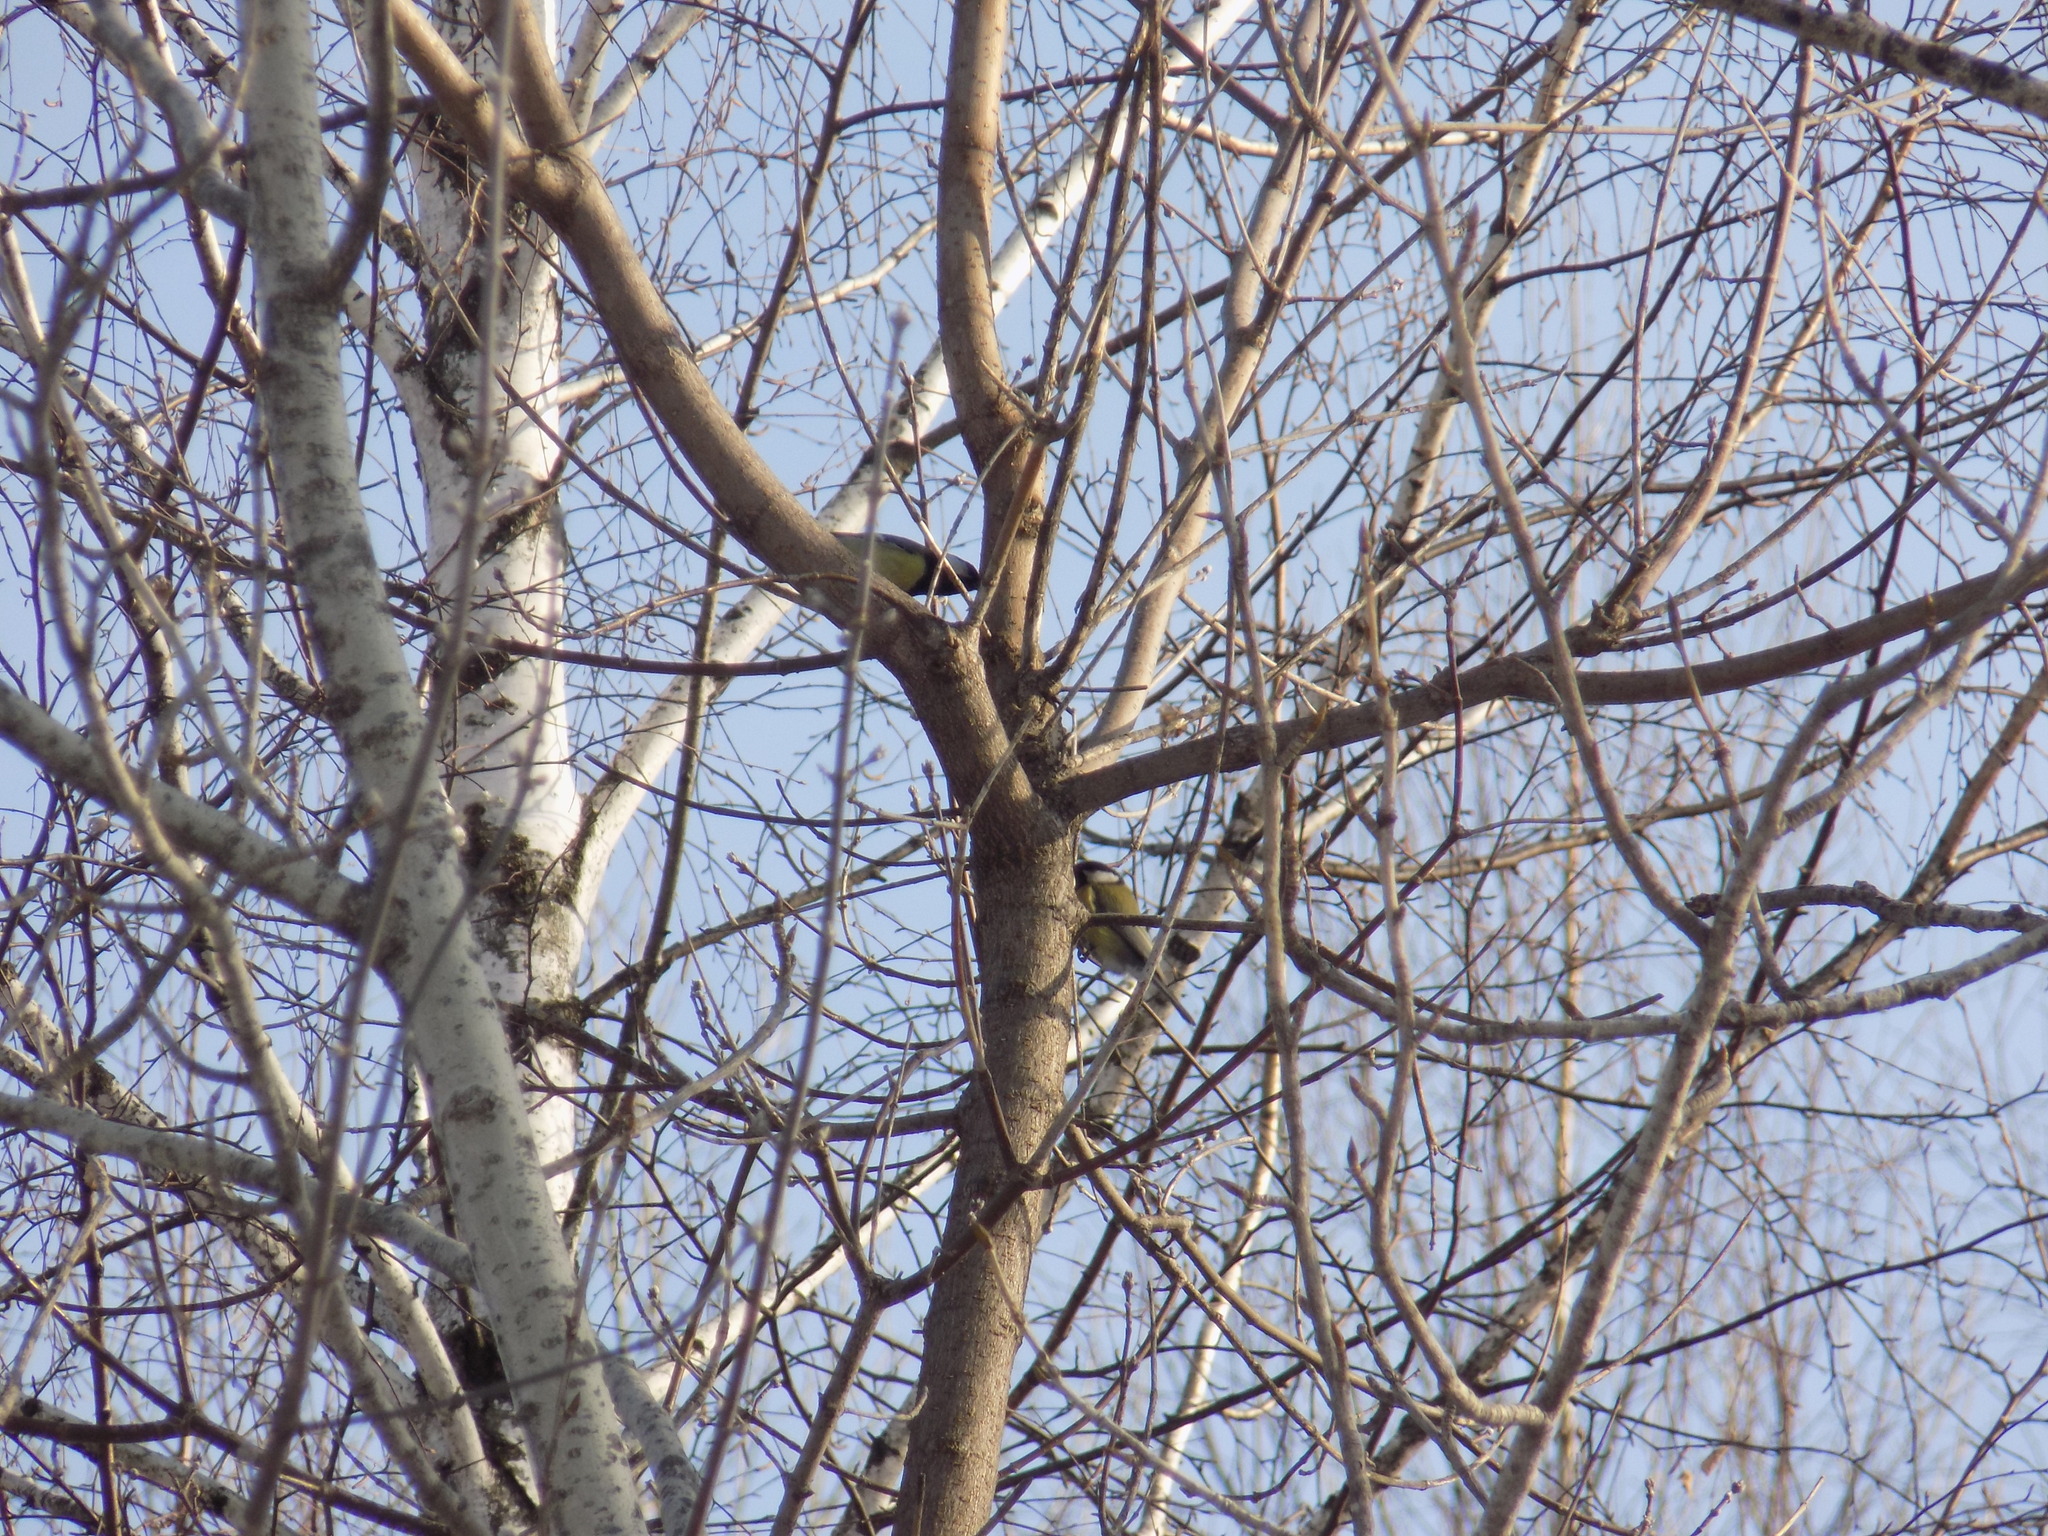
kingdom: Animalia
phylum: Chordata
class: Aves
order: Passeriformes
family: Paridae
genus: Parus
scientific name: Parus major
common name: Great tit
